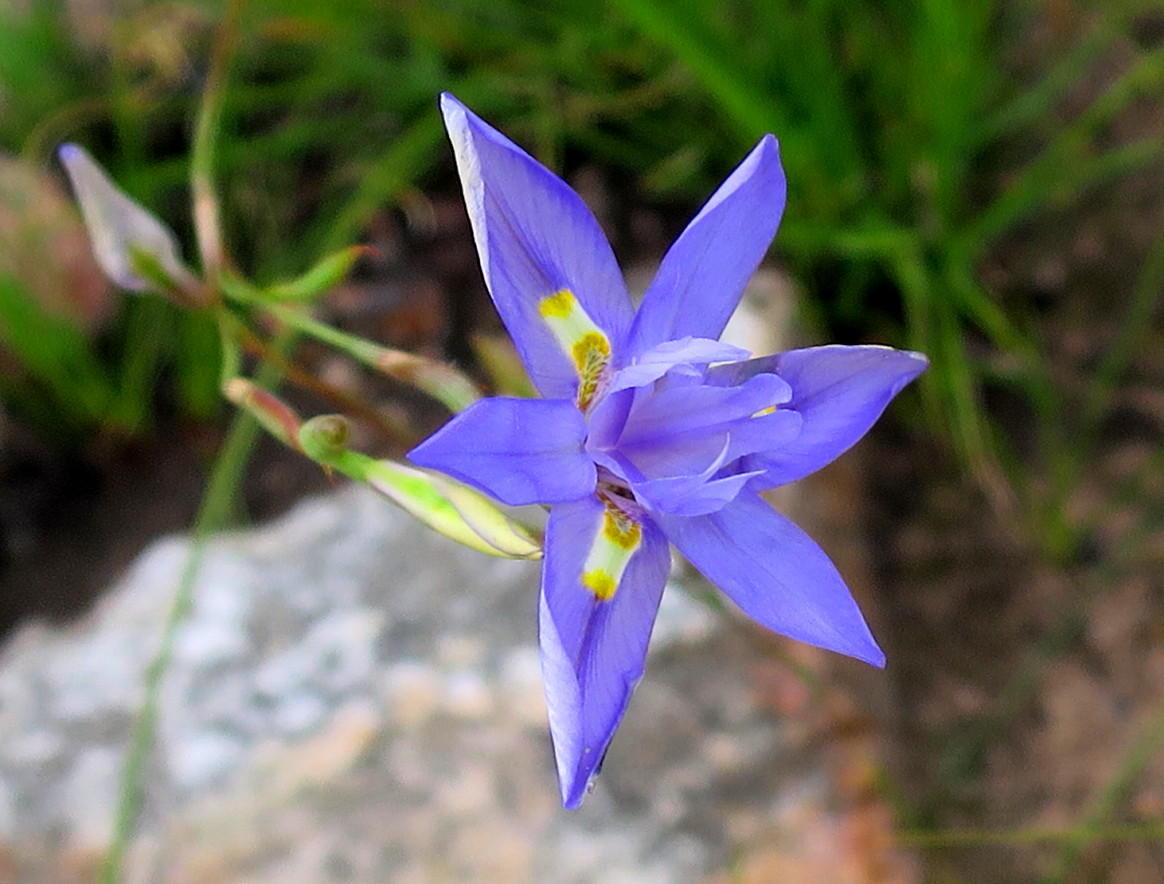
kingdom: Plantae
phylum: Tracheophyta
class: Liliopsida
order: Asparagales
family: Iridaceae
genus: Moraea
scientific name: Moraea polystachya
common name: Blue-tulip
